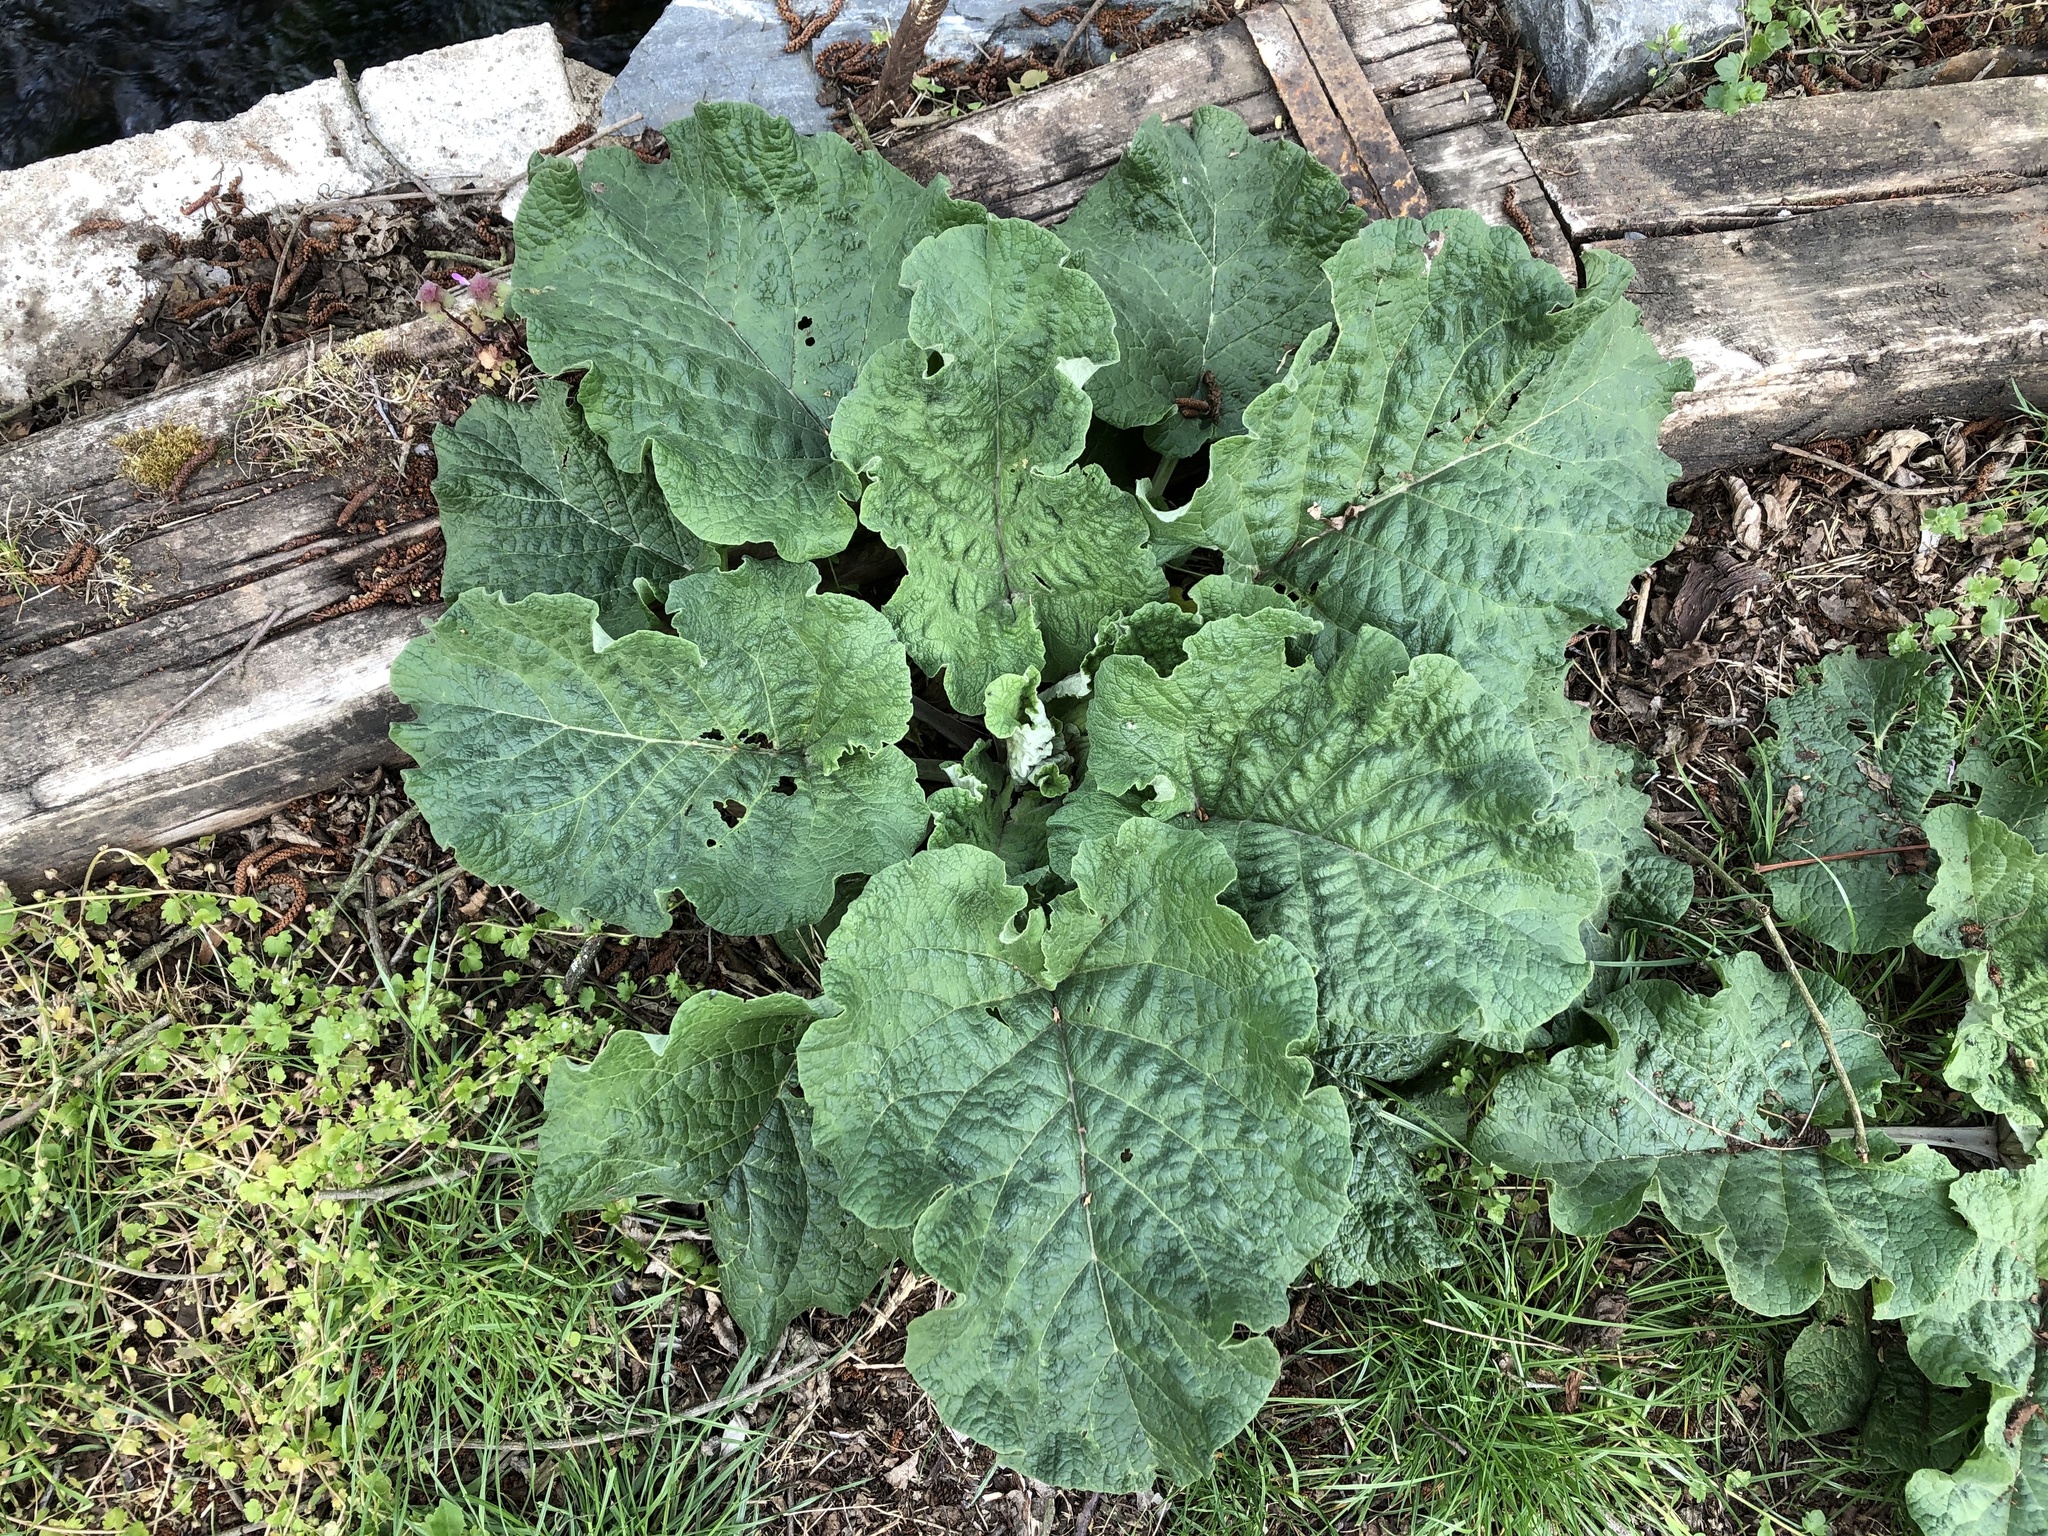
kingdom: Plantae
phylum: Tracheophyta
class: Magnoliopsida
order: Asterales
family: Asteraceae
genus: Arctium
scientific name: Arctium
